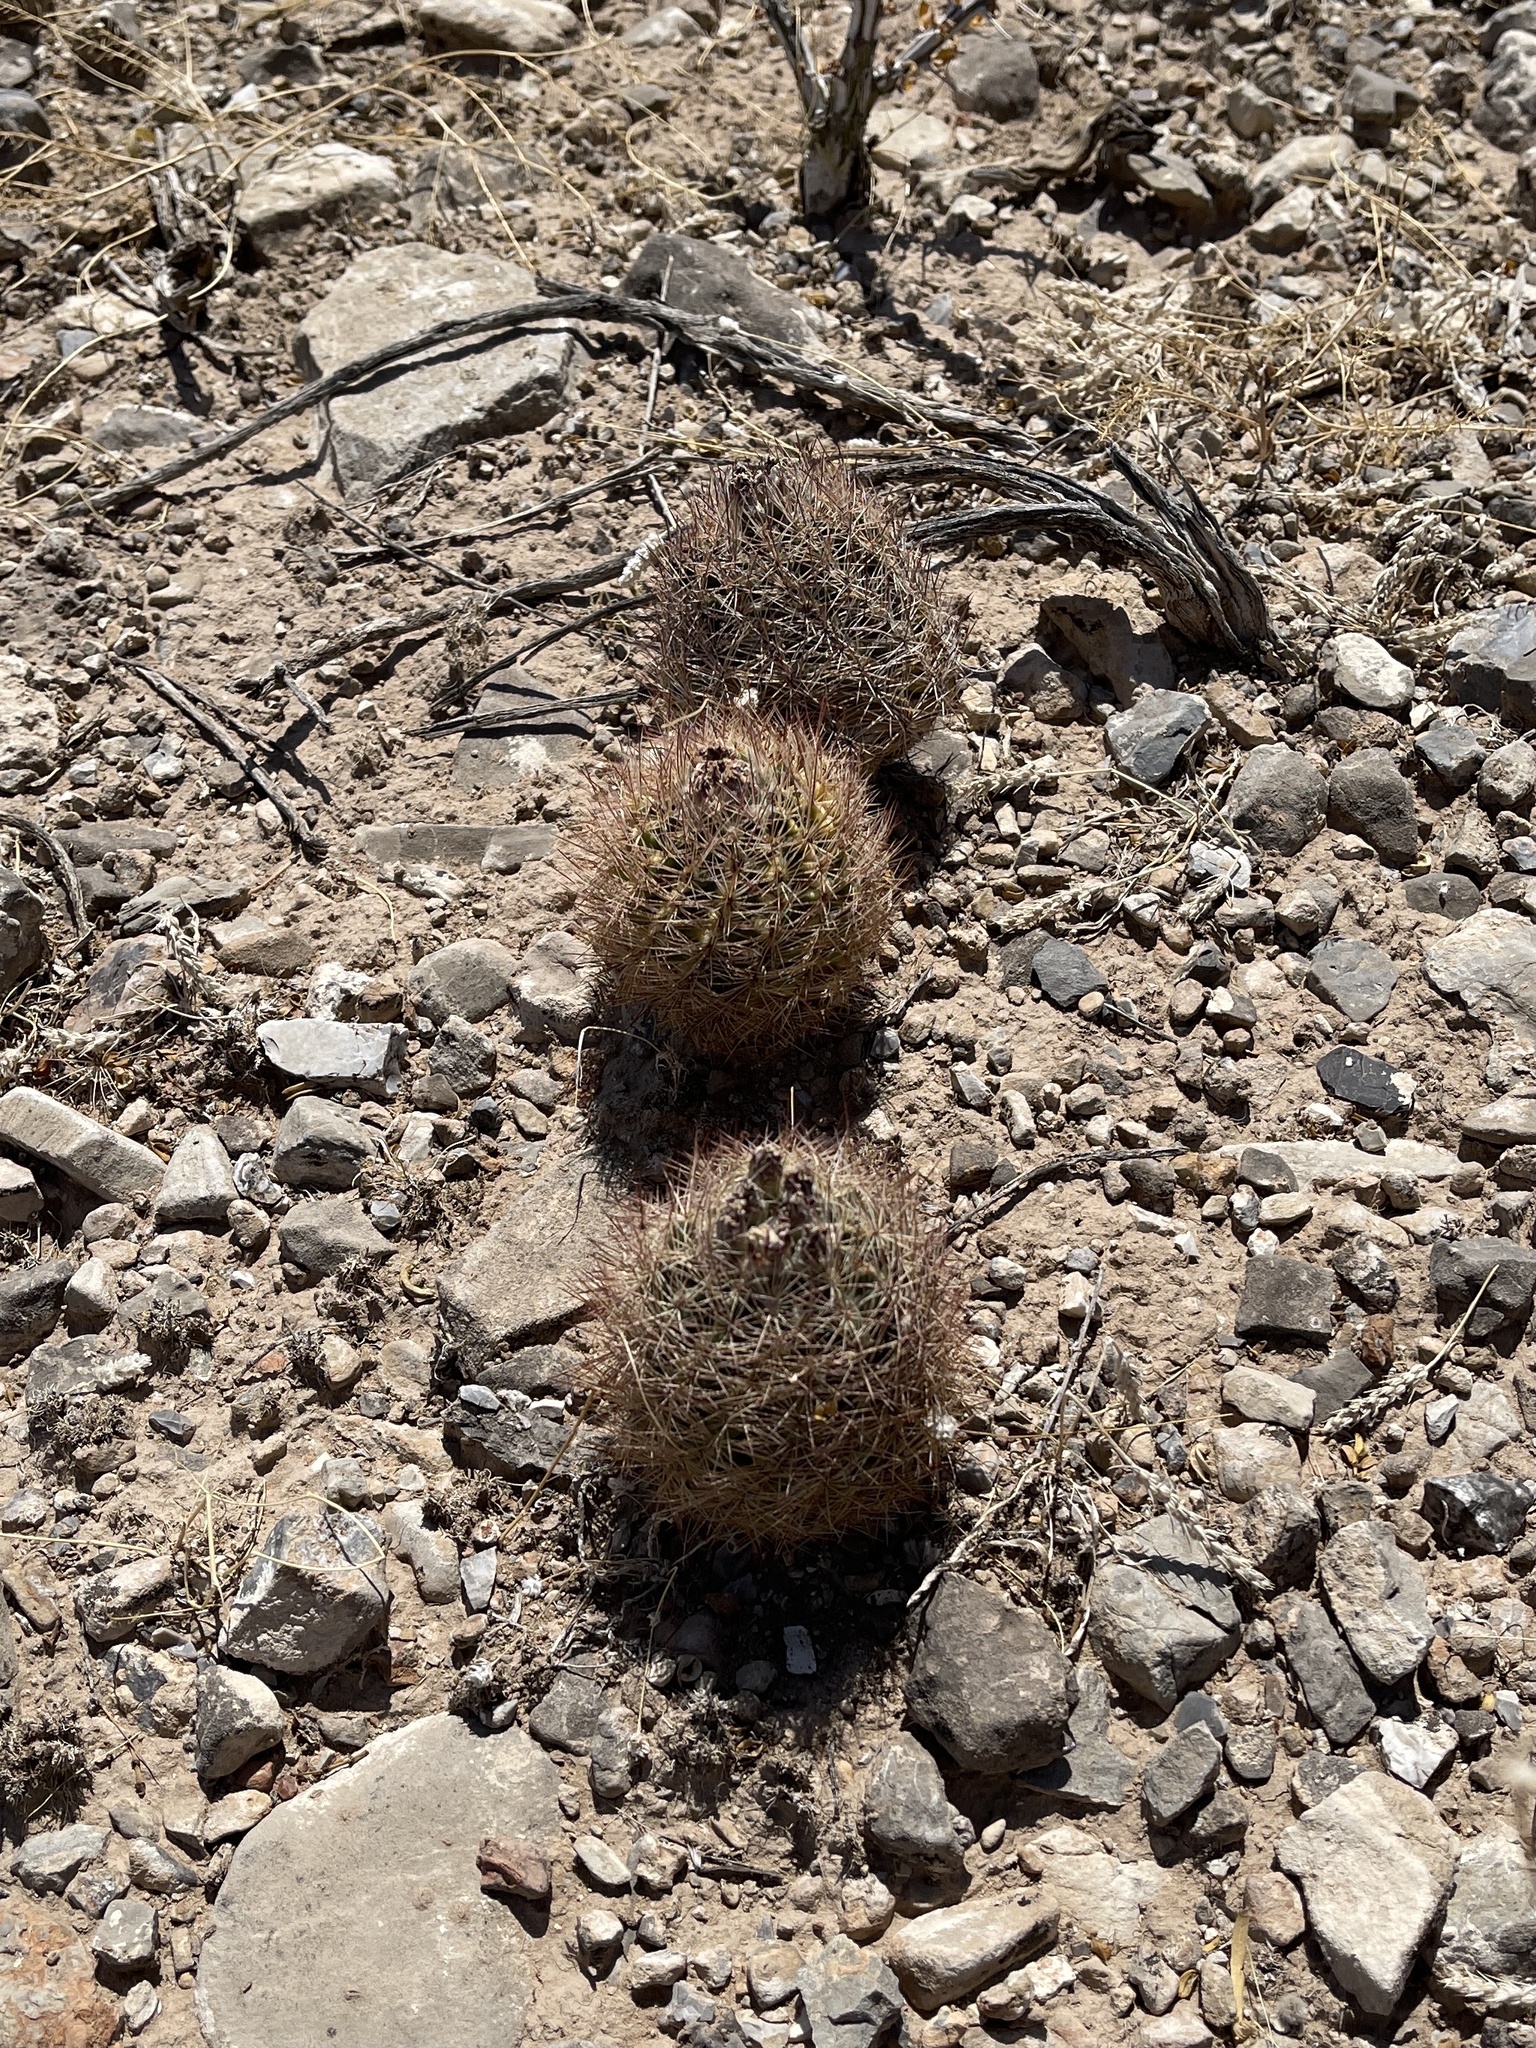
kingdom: Plantae
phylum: Tracheophyta
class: Magnoliopsida
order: Caryophyllales
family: Cactaceae
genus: Sclerocactus
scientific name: Sclerocactus intertextus
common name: White fish-hook cactus
